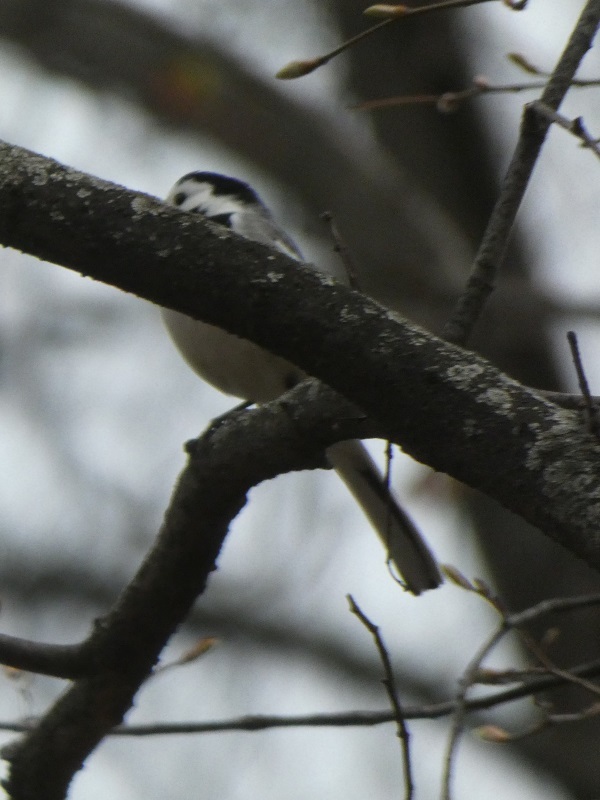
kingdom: Animalia
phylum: Chordata
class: Aves
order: Passeriformes
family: Motacillidae
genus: Motacilla
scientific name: Motacilla alba
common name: White wagtail
